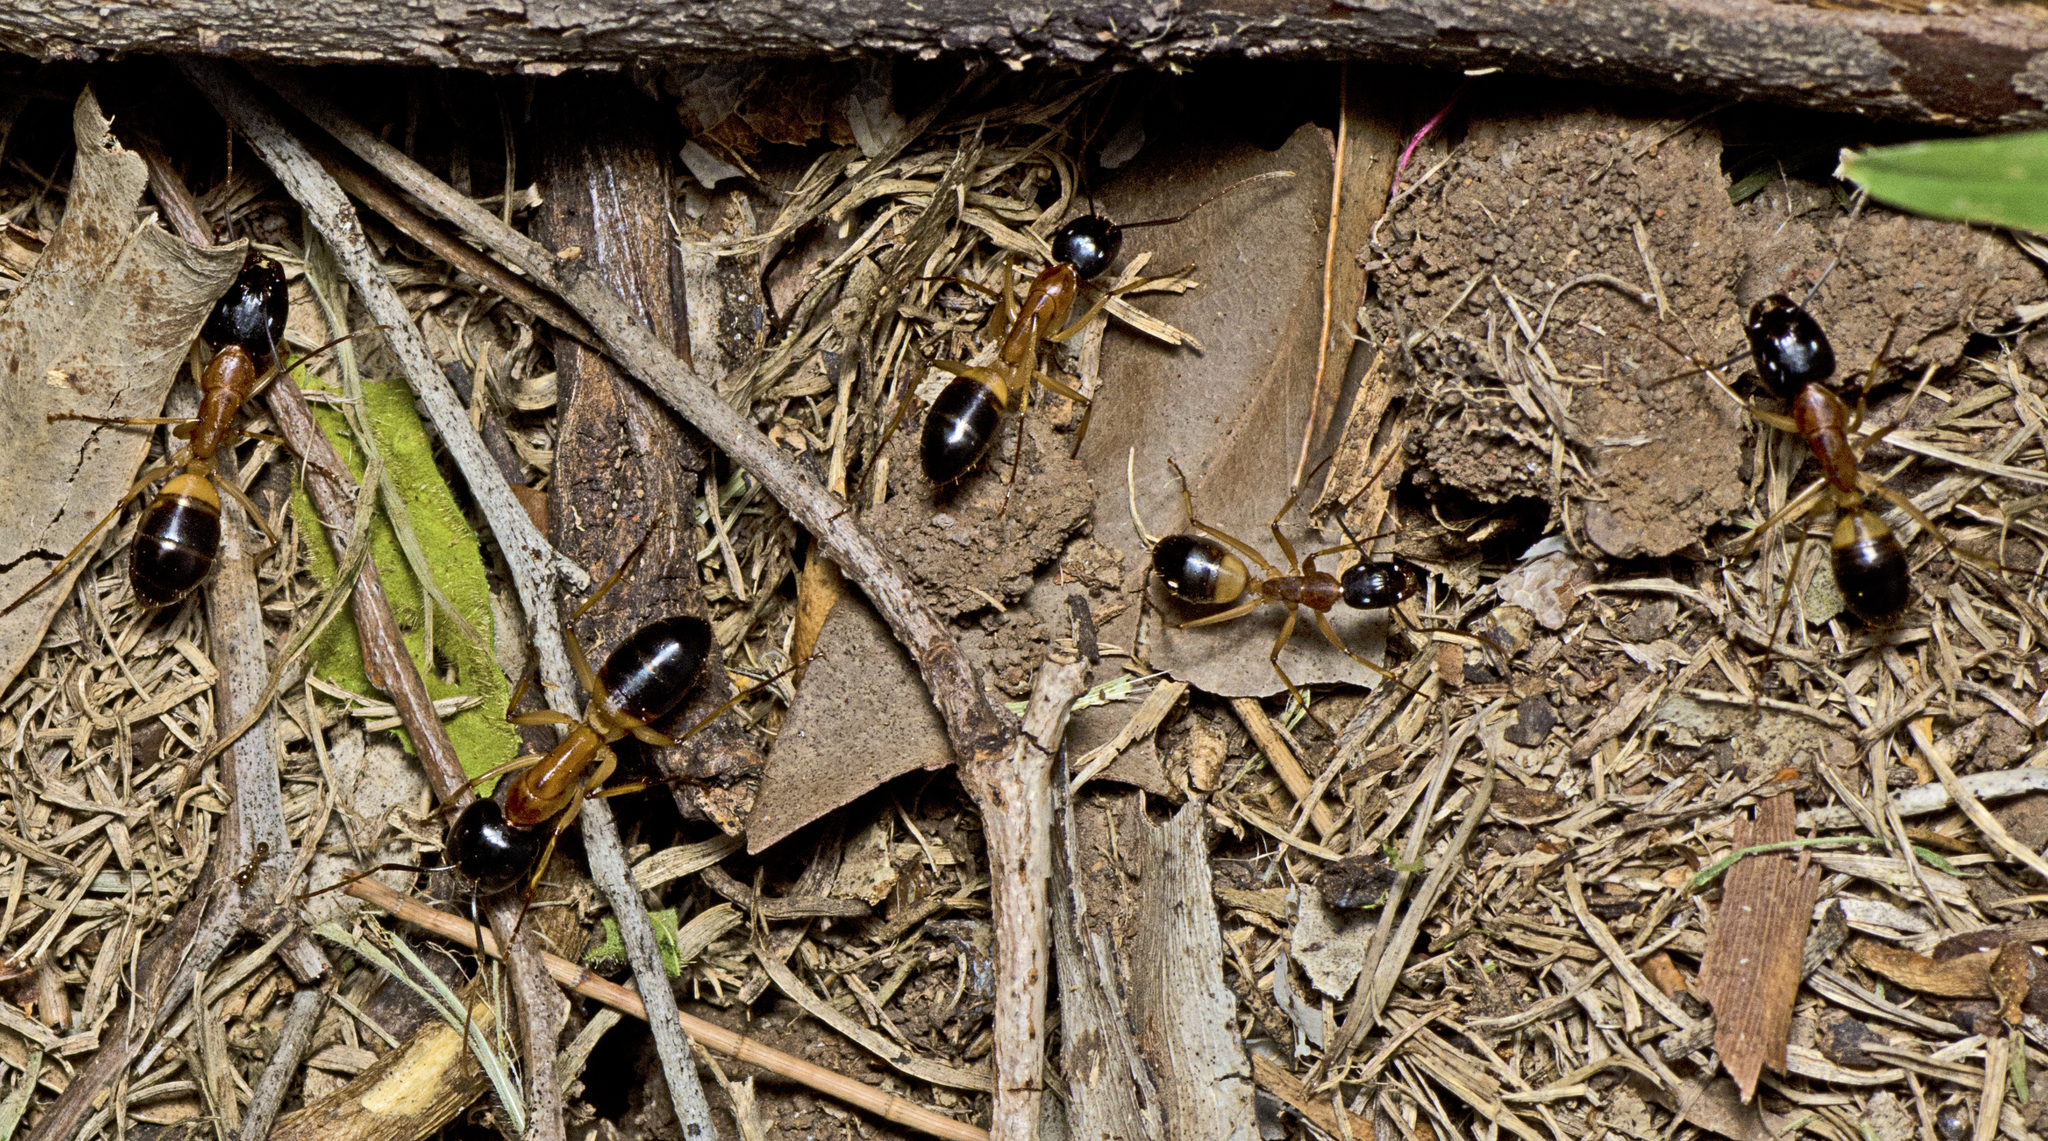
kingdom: Animalia
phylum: Arthropoda
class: Insecta
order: Hymenoptera
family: Formicidae
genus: Camponotus
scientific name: Camponotus consobrinus
